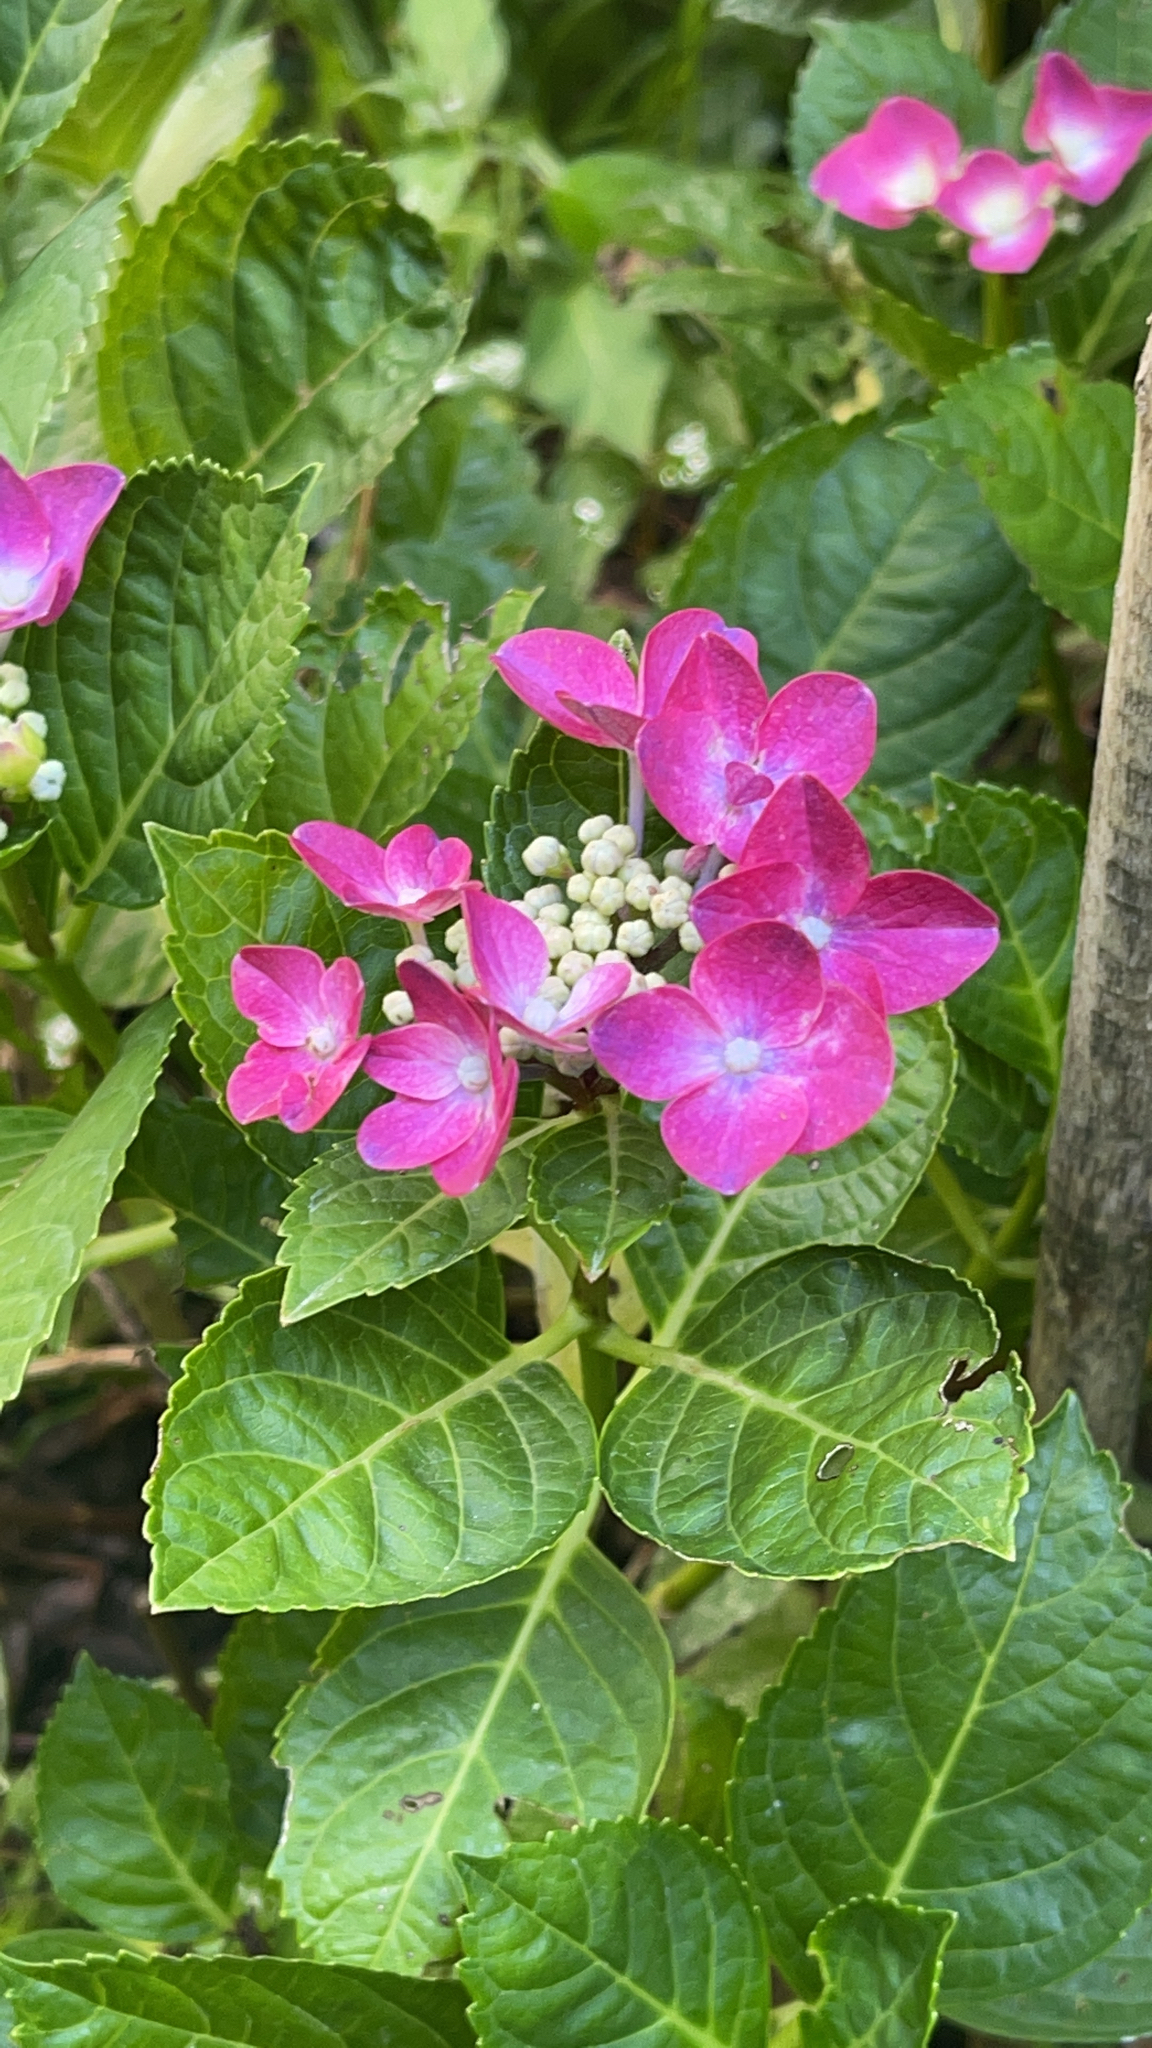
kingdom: Plantae
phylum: Tracheophyta
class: Magnoliopsida
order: Cornales
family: Hydrangeaceae
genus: Hydrangea
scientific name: Hydrangea macrophylla
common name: Hydrangea
